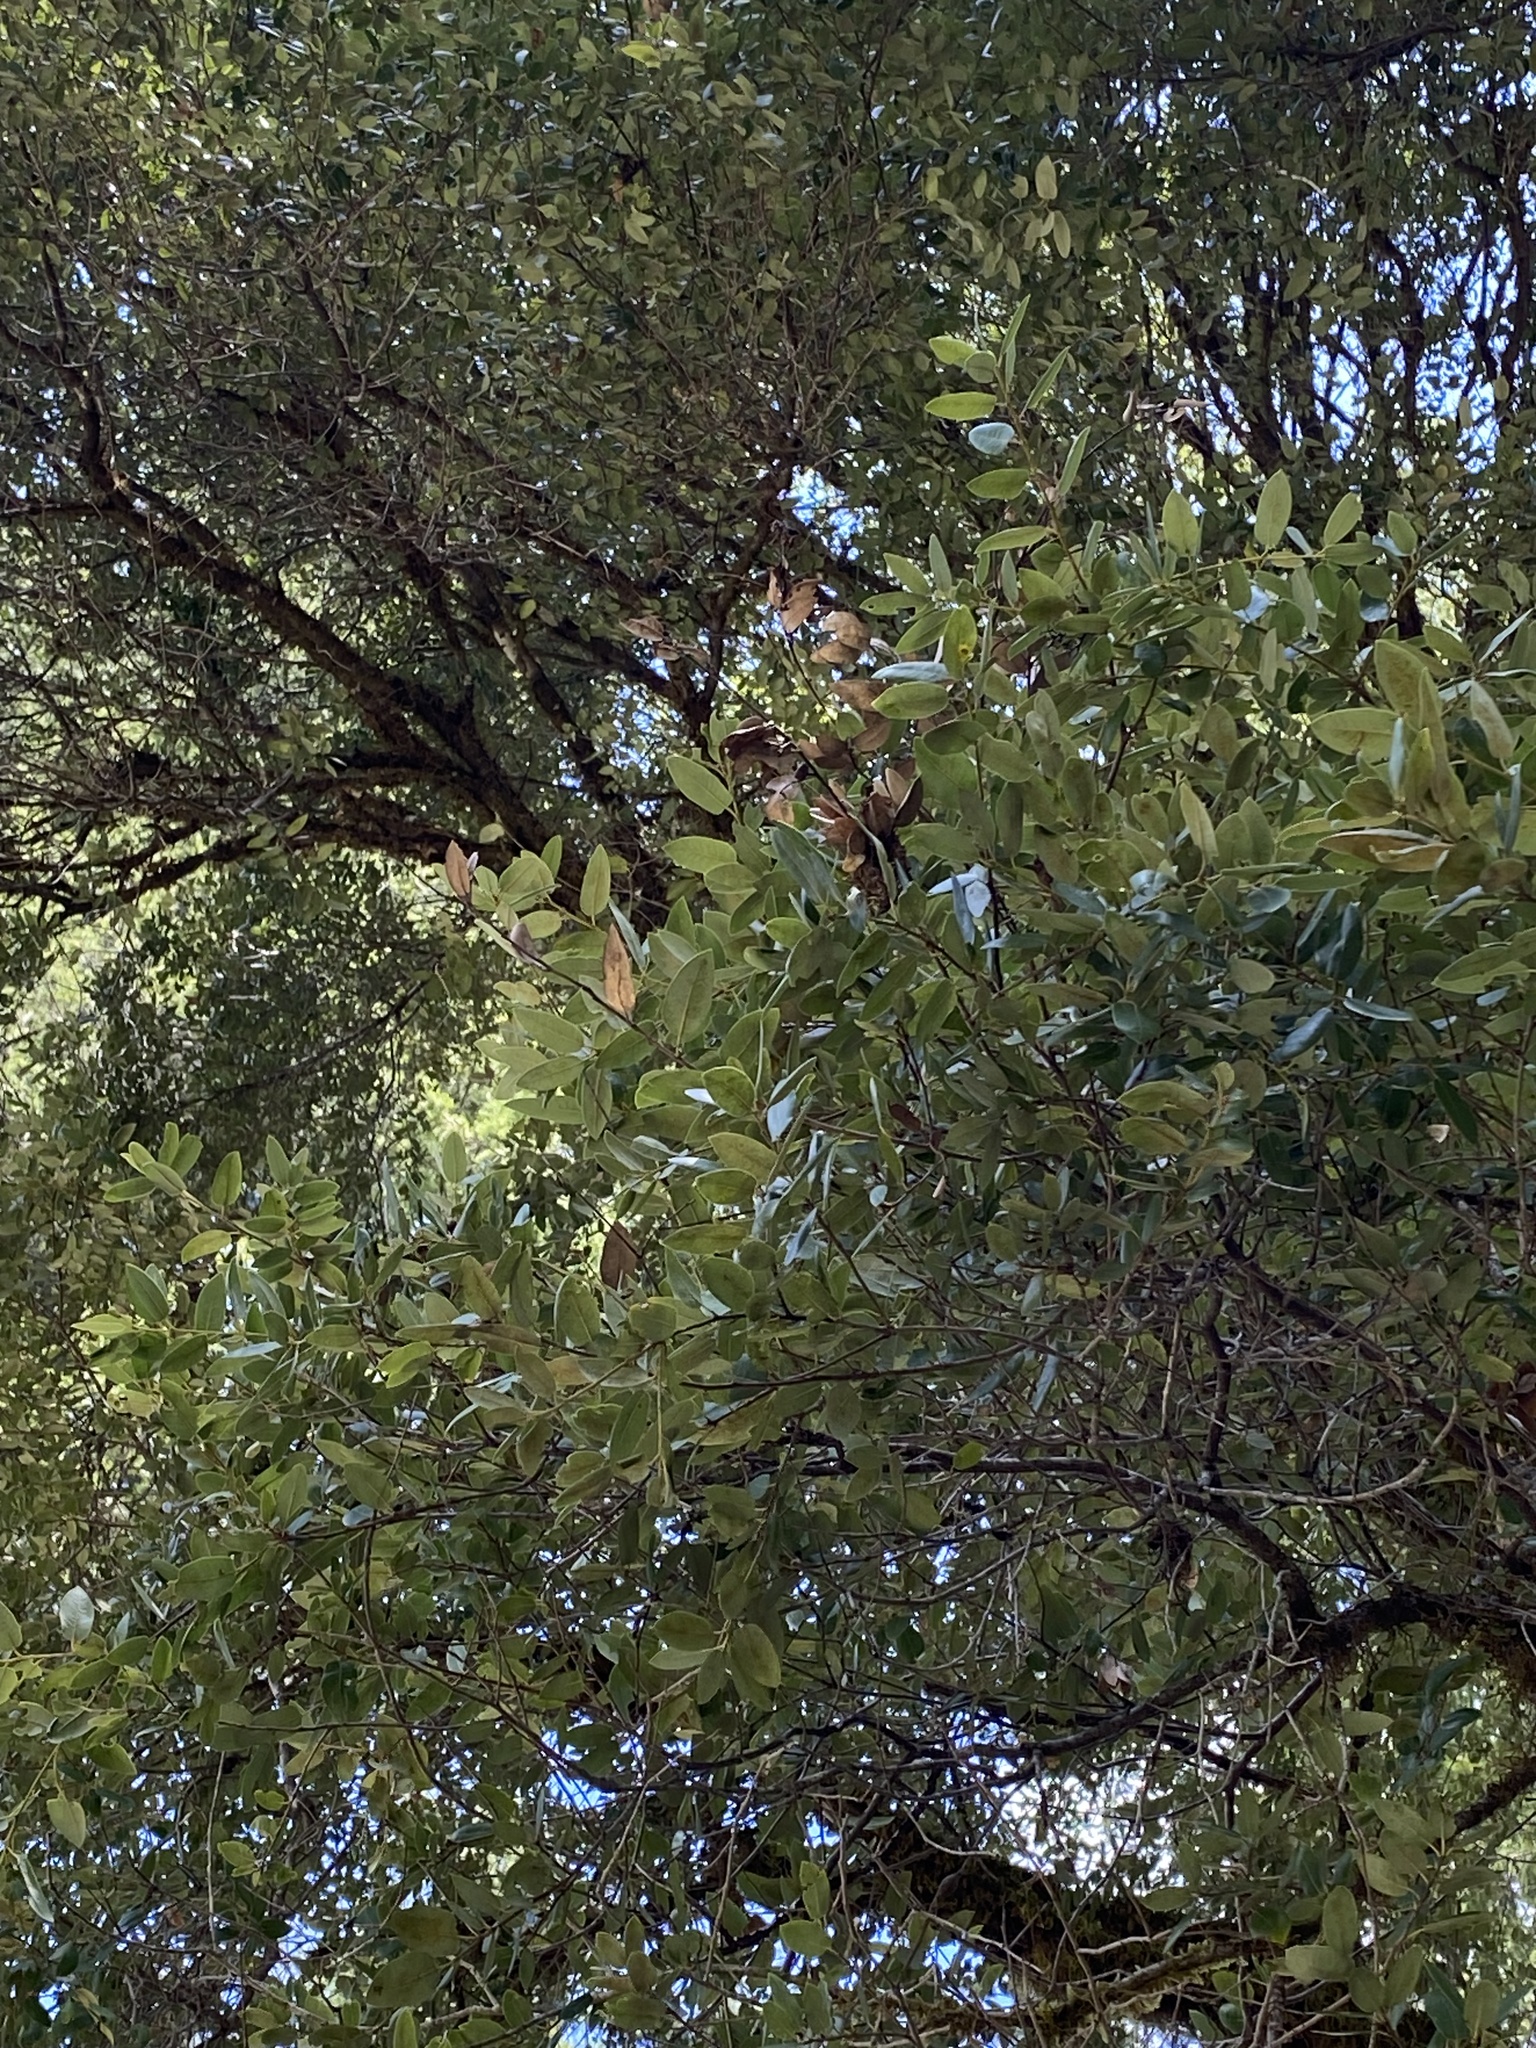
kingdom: Plantae
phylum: Tracheophyta
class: Magnoliopsida
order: Fagales
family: Fagaceae
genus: Quercus
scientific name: Quercus chrysolepis
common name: Canyon live oak
